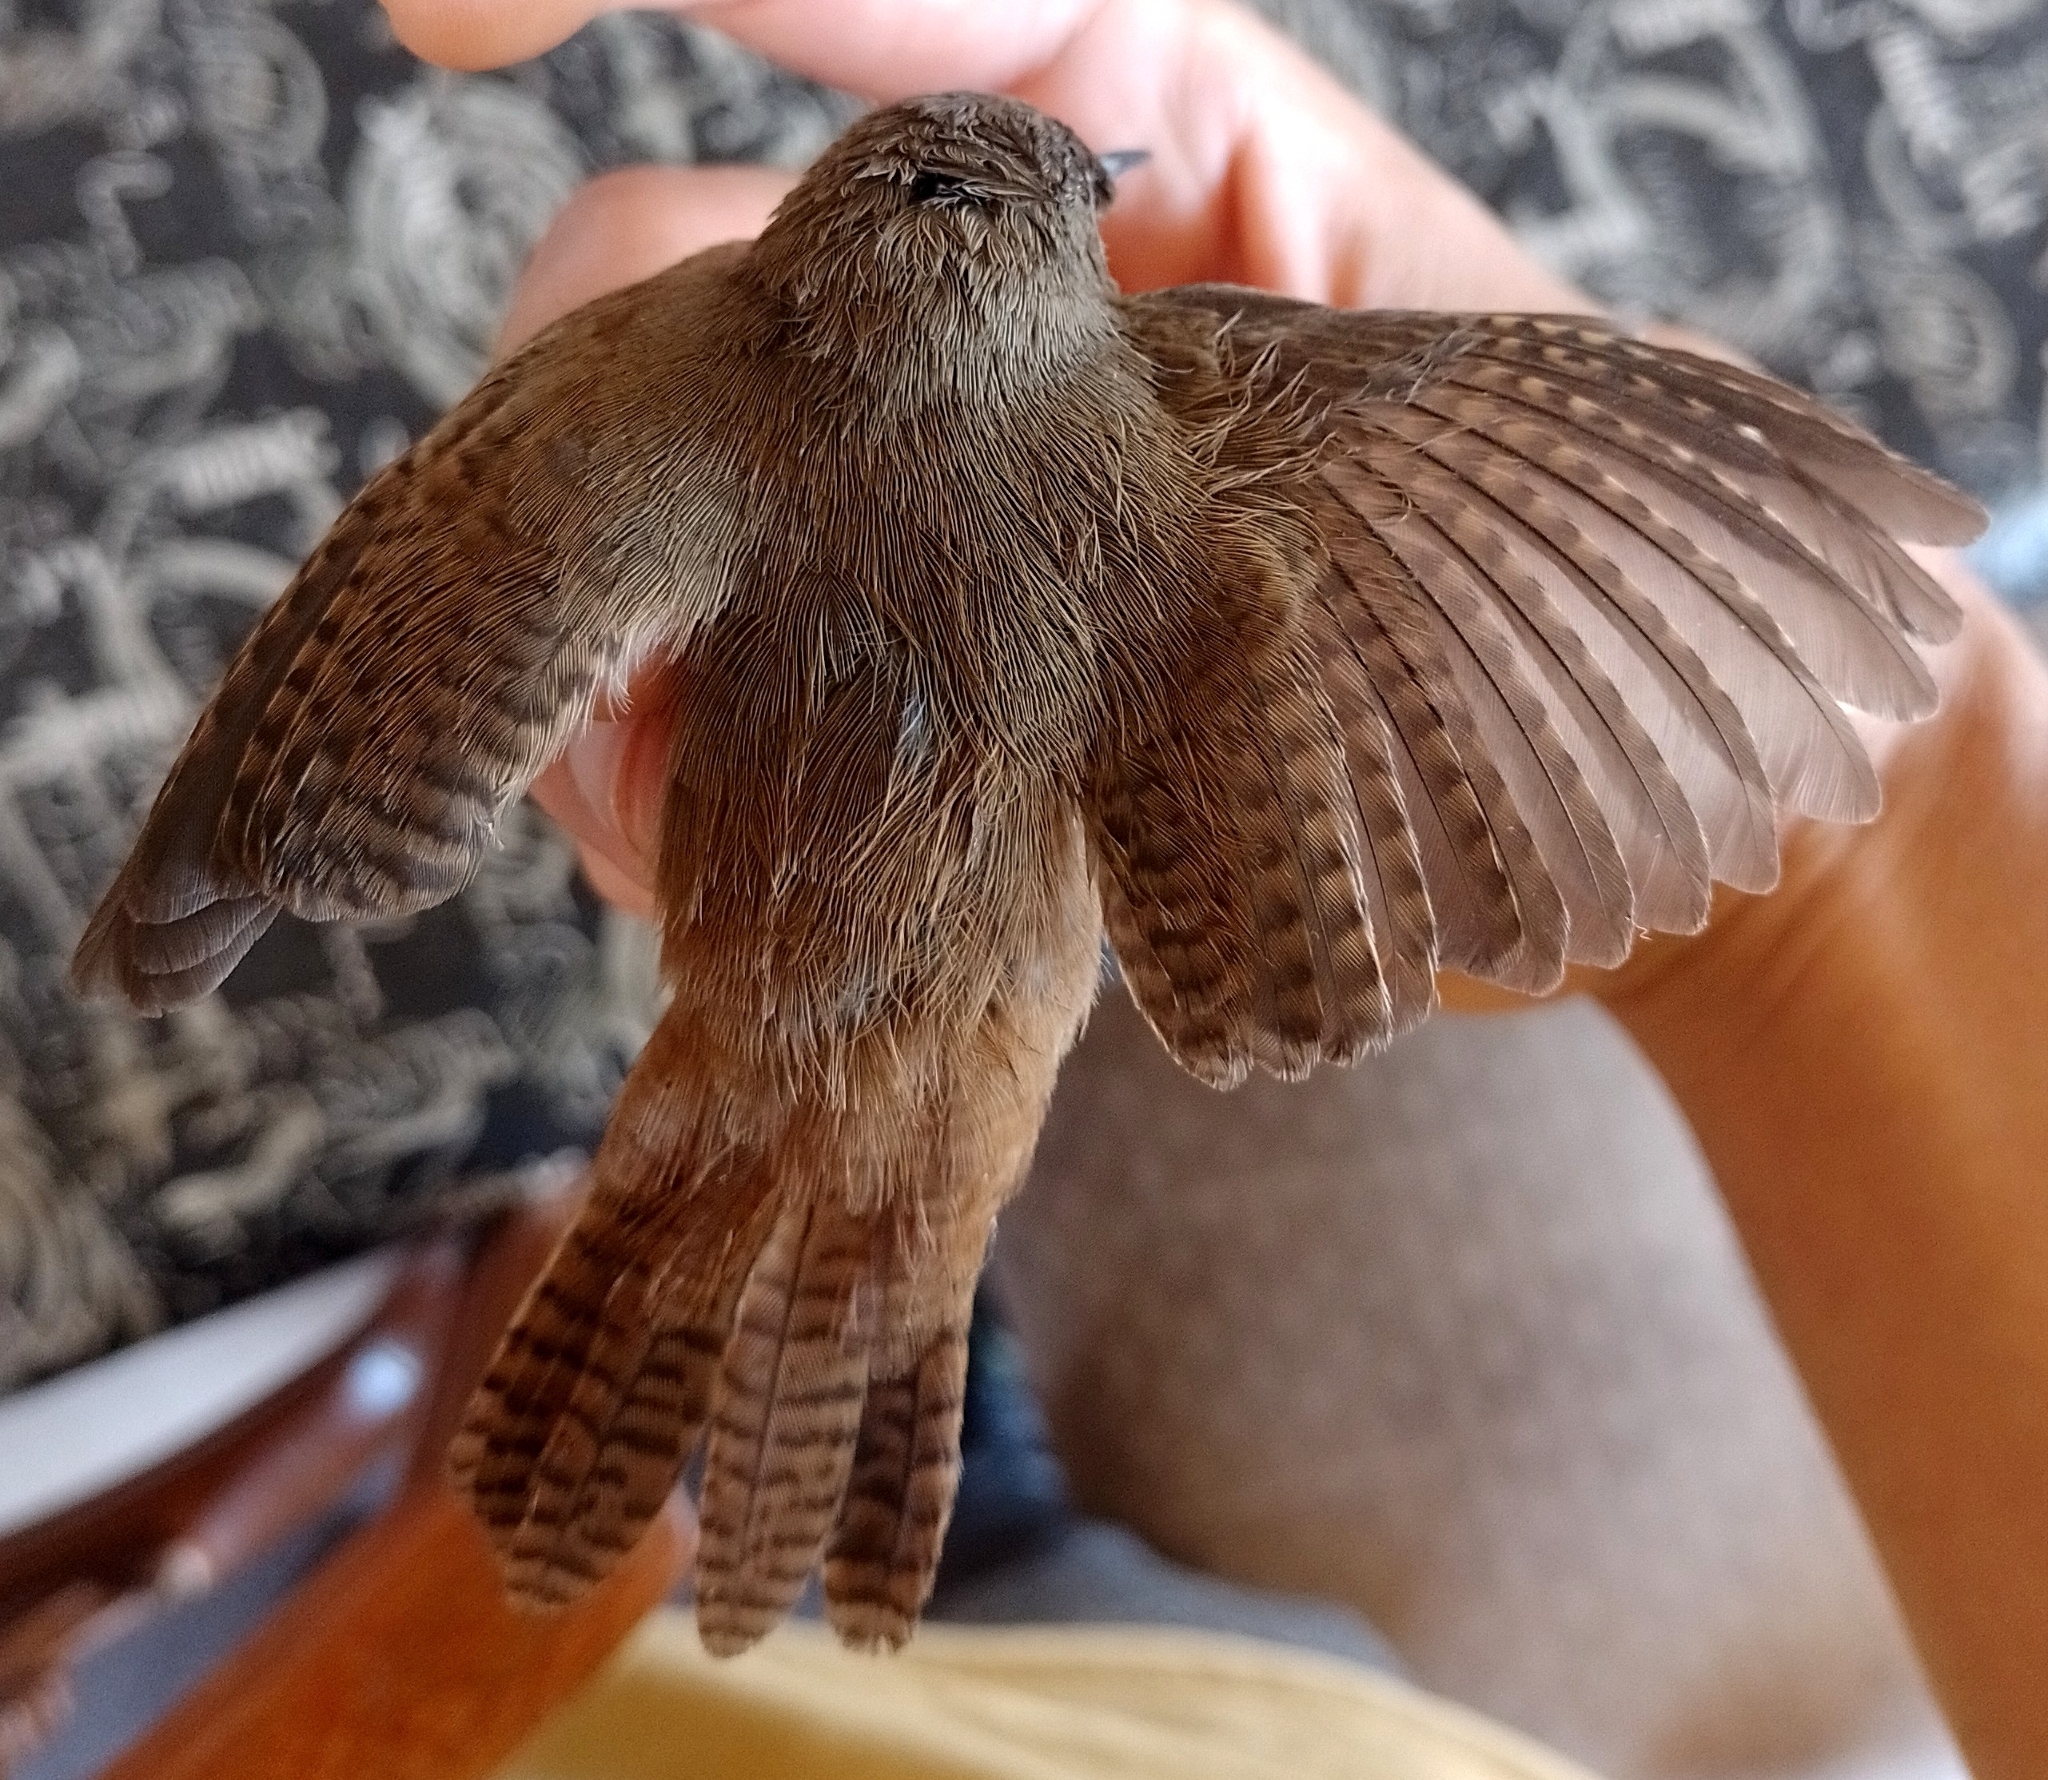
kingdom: Animalia
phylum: Chordata
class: Aves
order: Passeriformes
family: Troglodytidae
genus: Troglodytes
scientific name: Troglodytes aedon
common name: House wren
